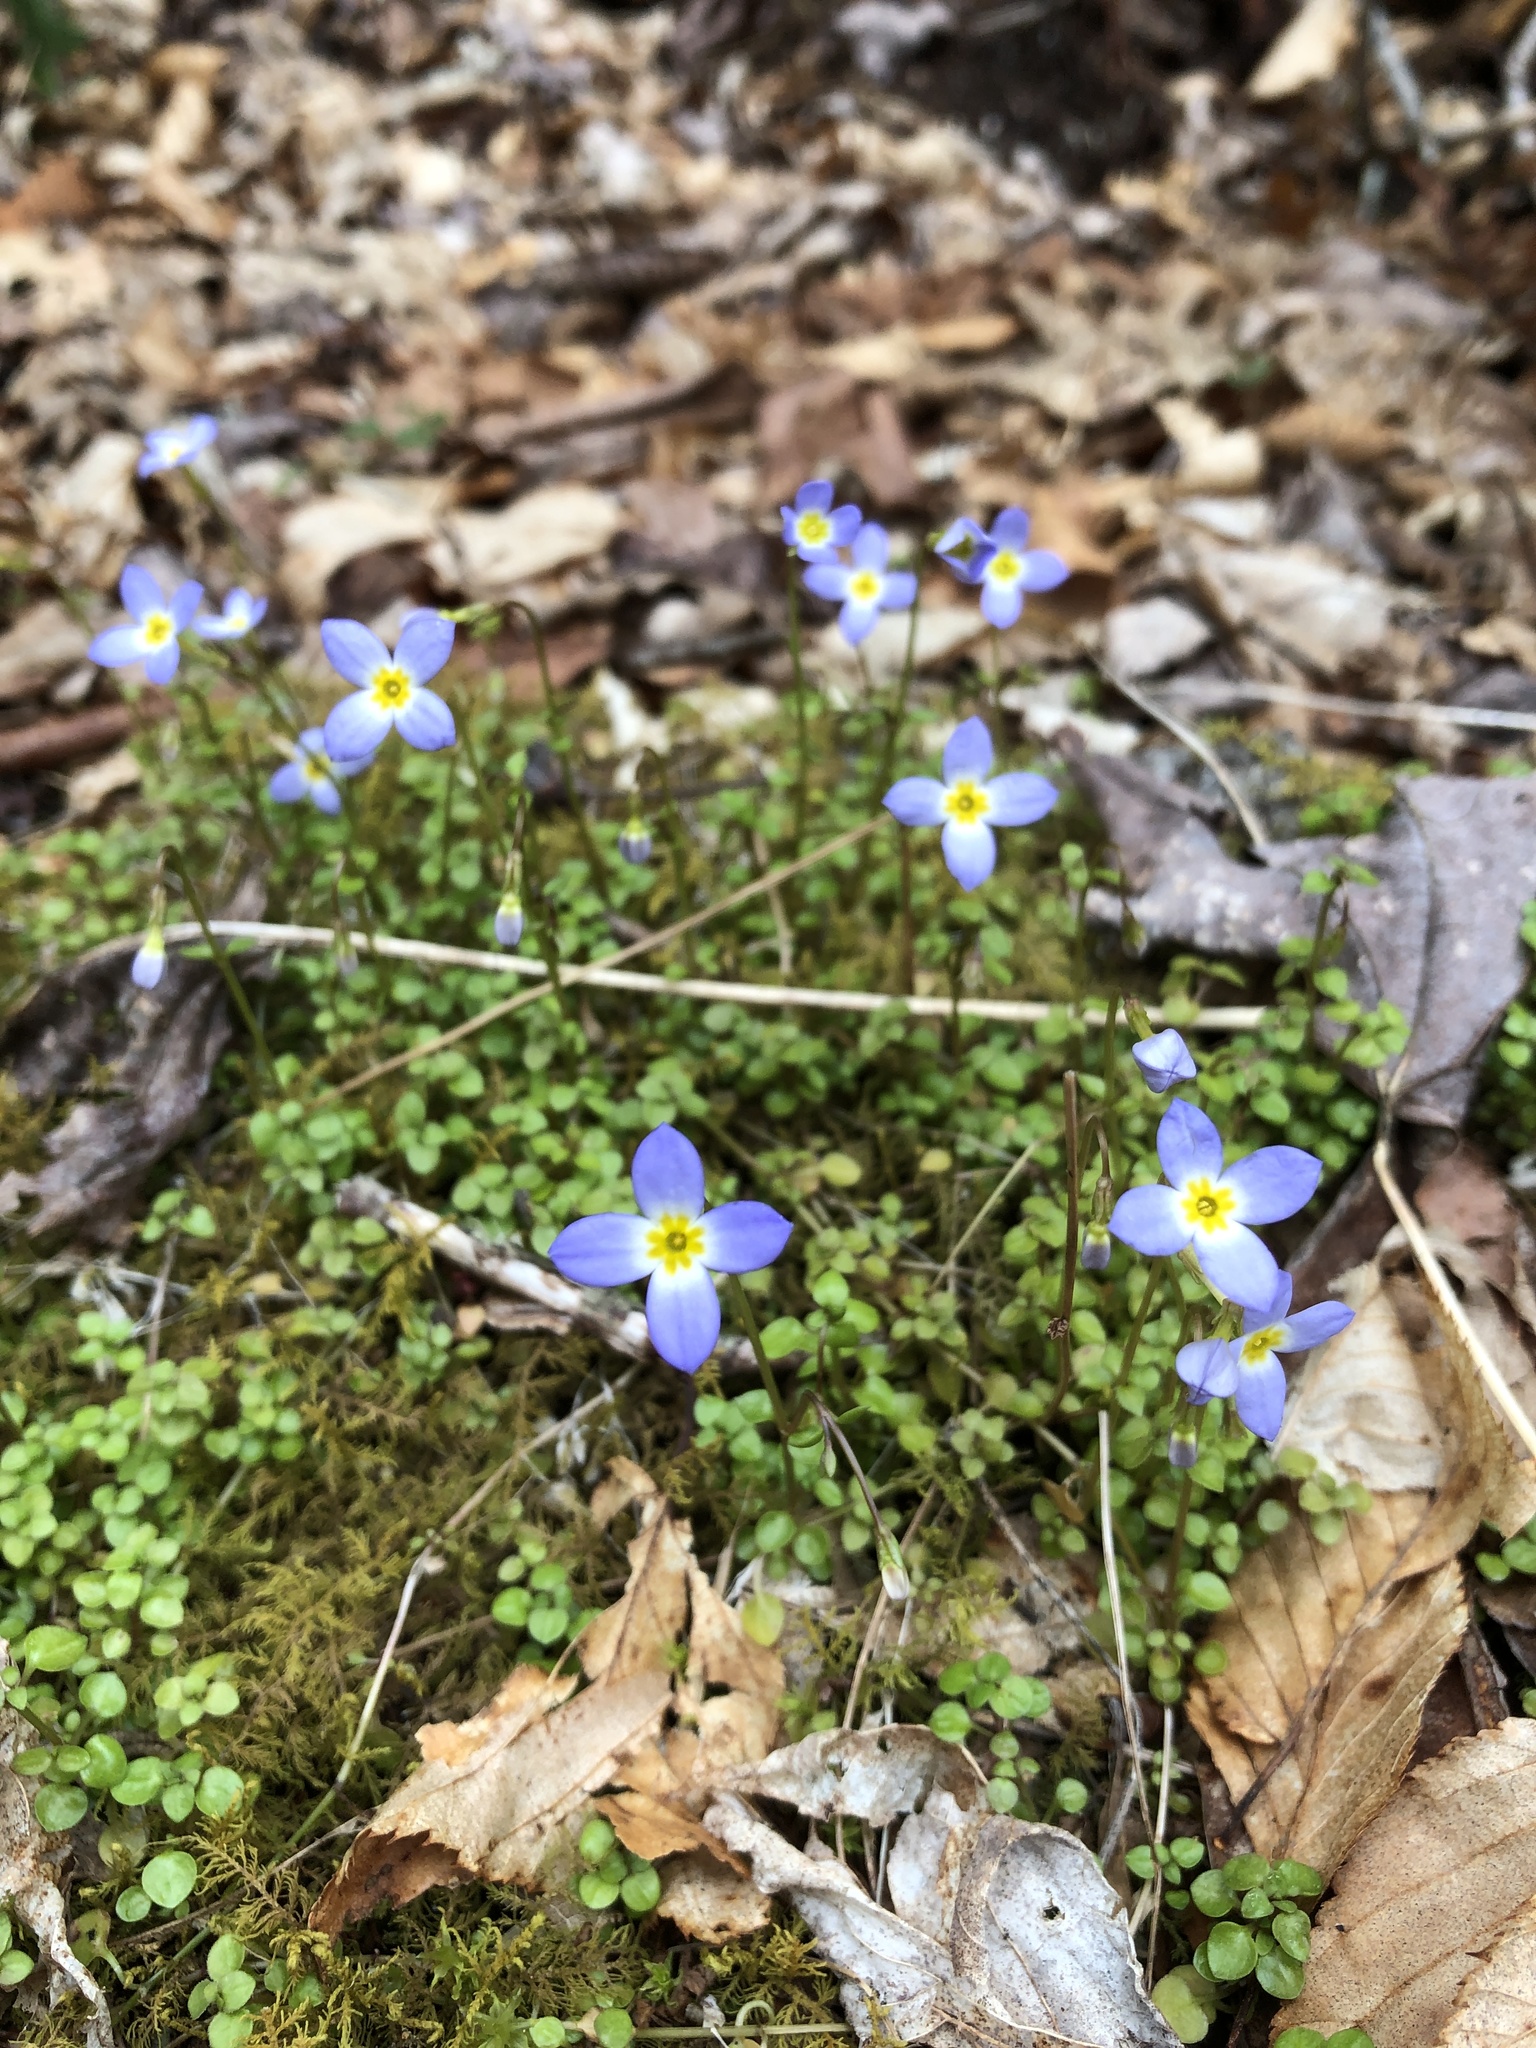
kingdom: Plantae
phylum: Tracheophyta
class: Magnoliopsida
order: Gentianales
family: Rubiaceae
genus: Houstonia
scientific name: Houstonia serpyllifolia
